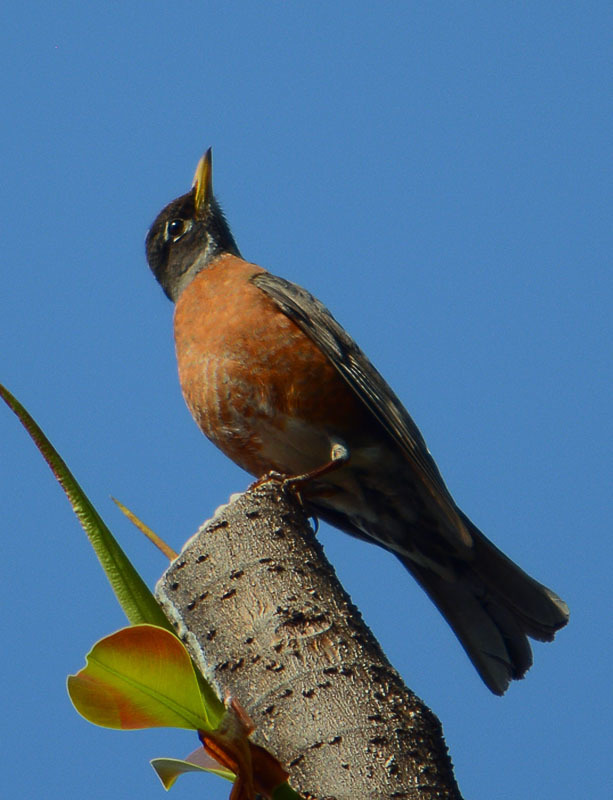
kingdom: Animalia
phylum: Chordata
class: Aves
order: Passeriformes
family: Turdidae
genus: Turdus
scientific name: Turdus migratorius
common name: American robin
